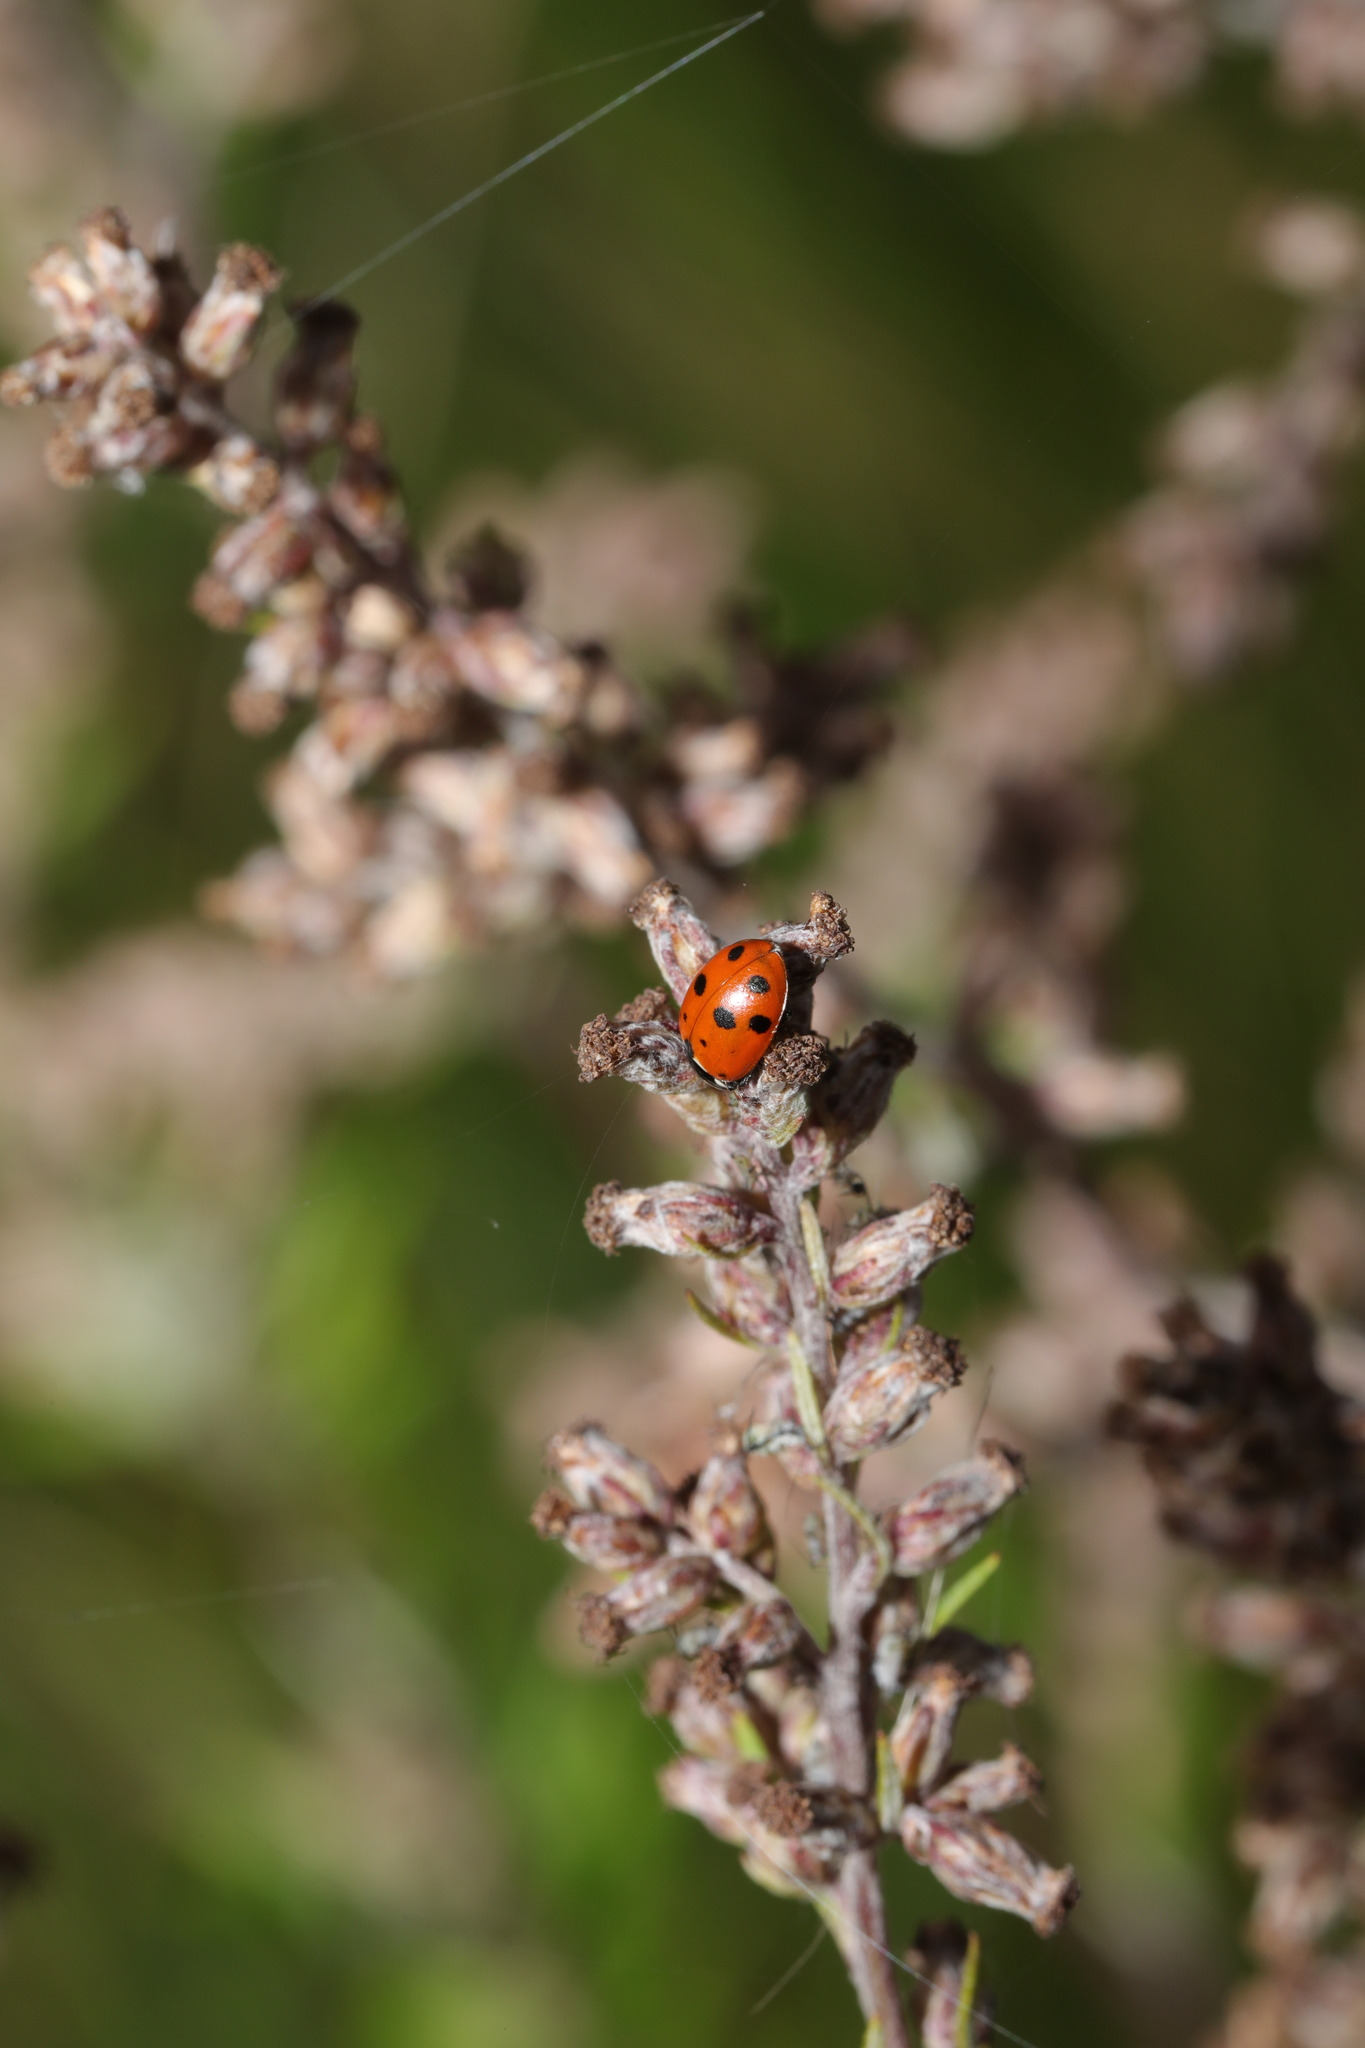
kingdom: Animalia
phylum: Arthropoda
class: Insecta
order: Coleoptera
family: Coccinellidae
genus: Hippodamia
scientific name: Hippodamia variegata
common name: Ladybird beetle
